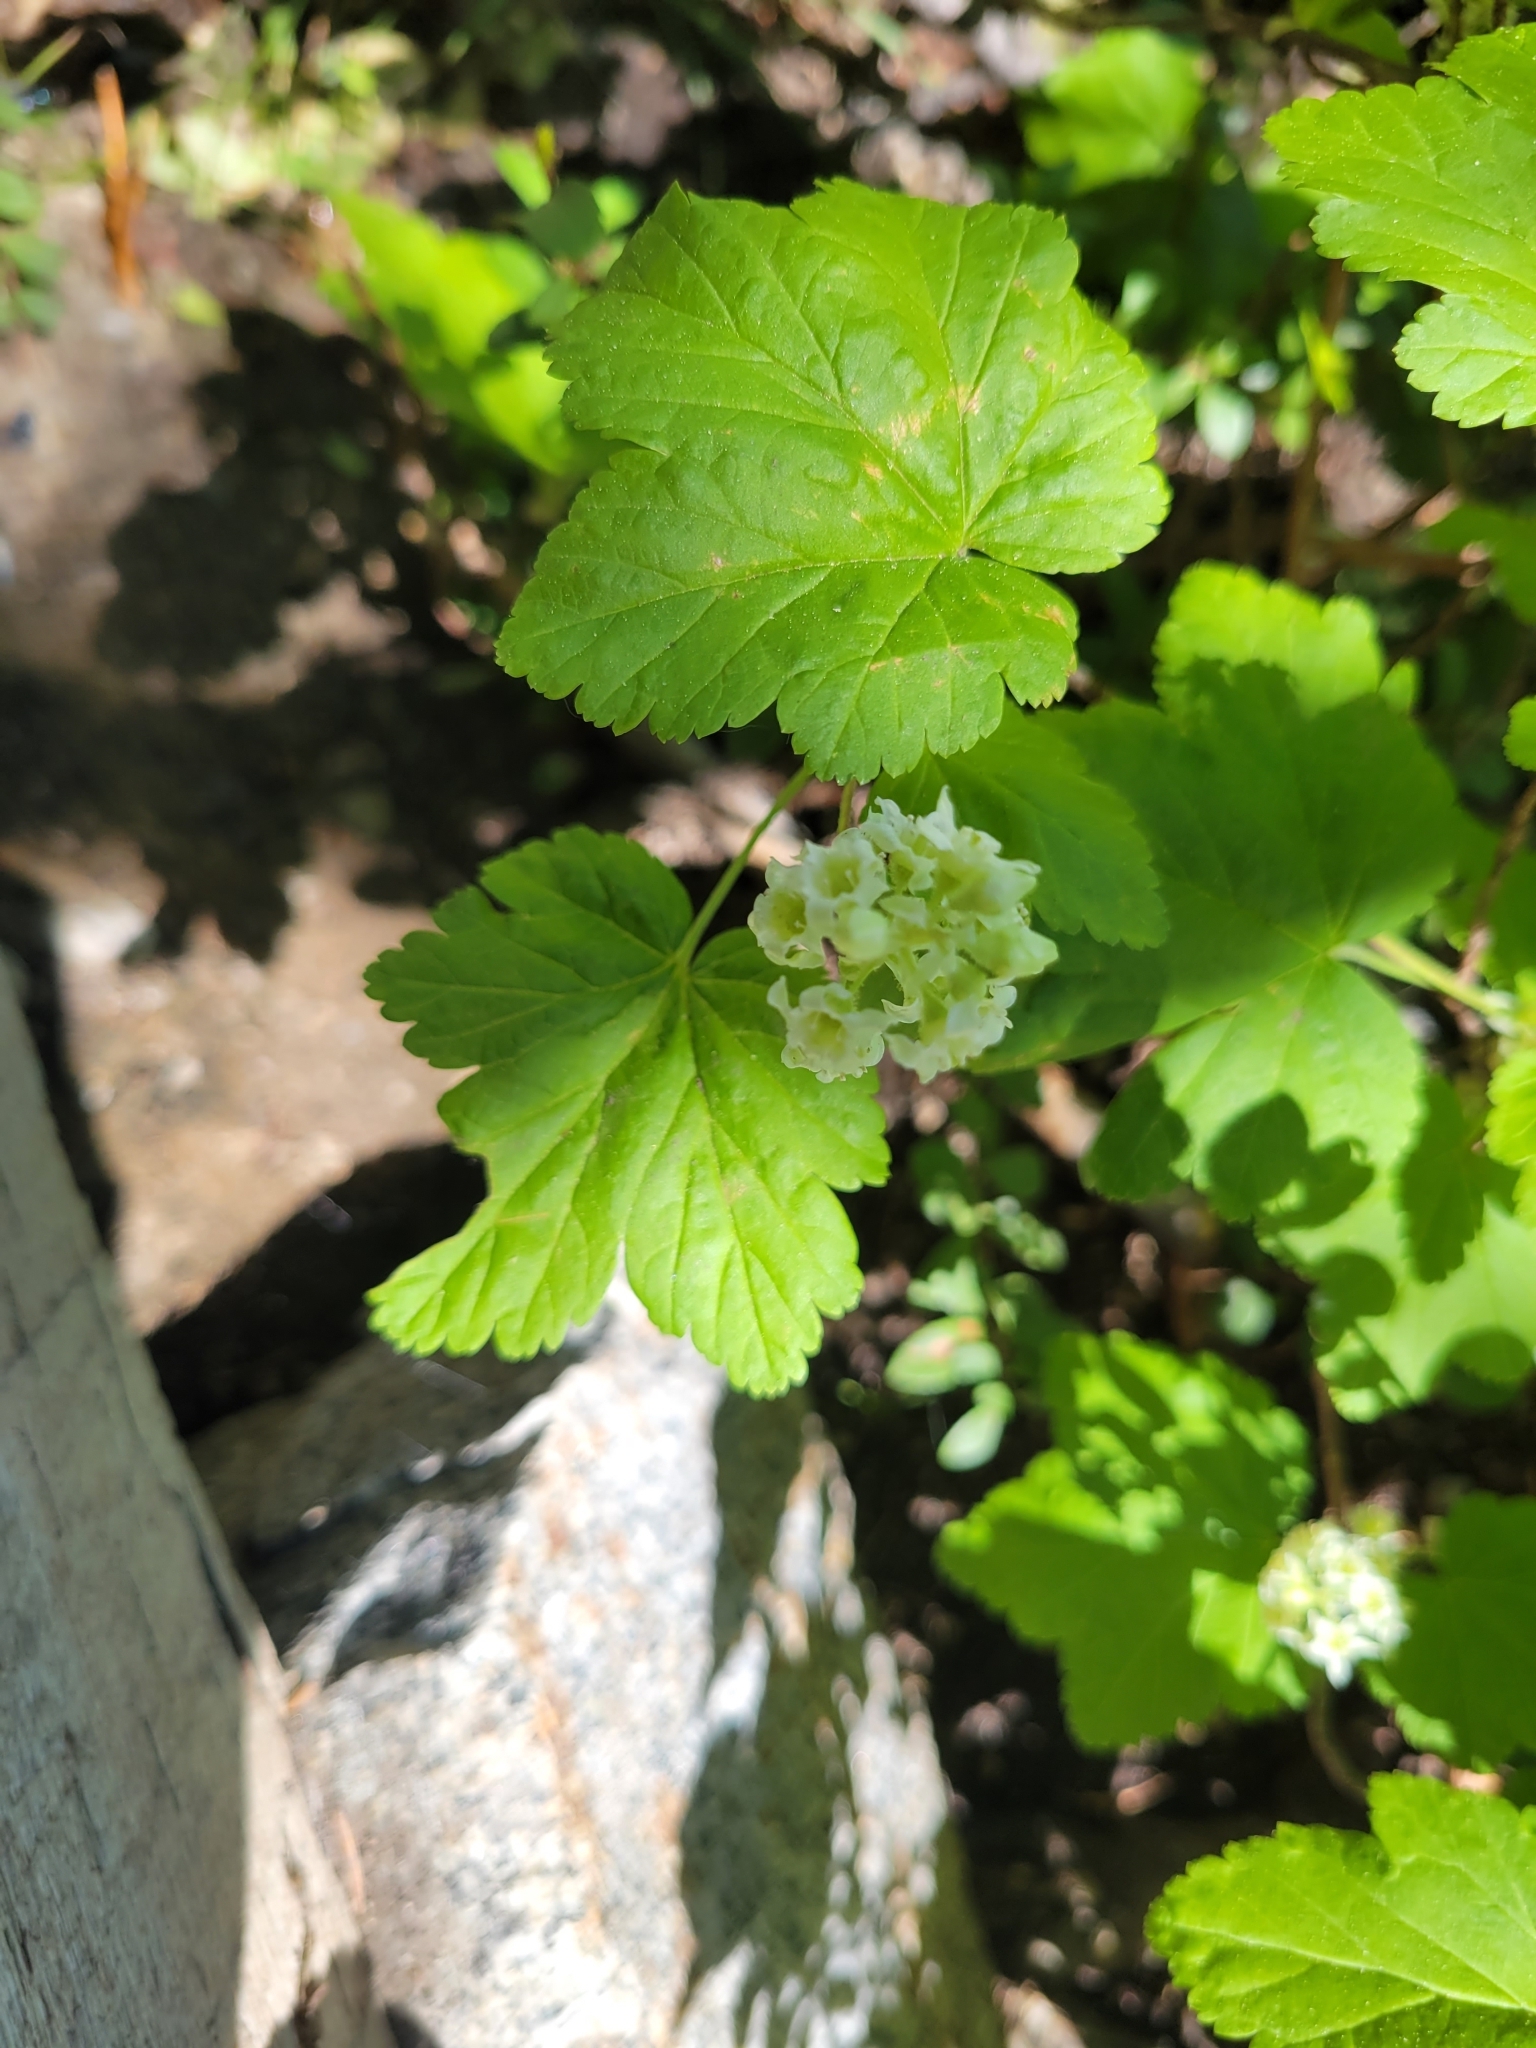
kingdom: Plantae
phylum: Tracheophyta
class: Magnoliopsida
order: Saxifragales
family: Grossulariaceae
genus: Ribes
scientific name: Ribes wolfii
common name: Rothrock currant
